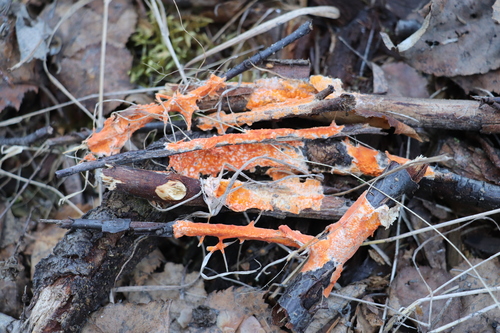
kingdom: Fungi
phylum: Basidiomycota
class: Agaricomycetes
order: Russulales
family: Peniophoraceae
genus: Peniophora
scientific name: Peniophora laurentii
